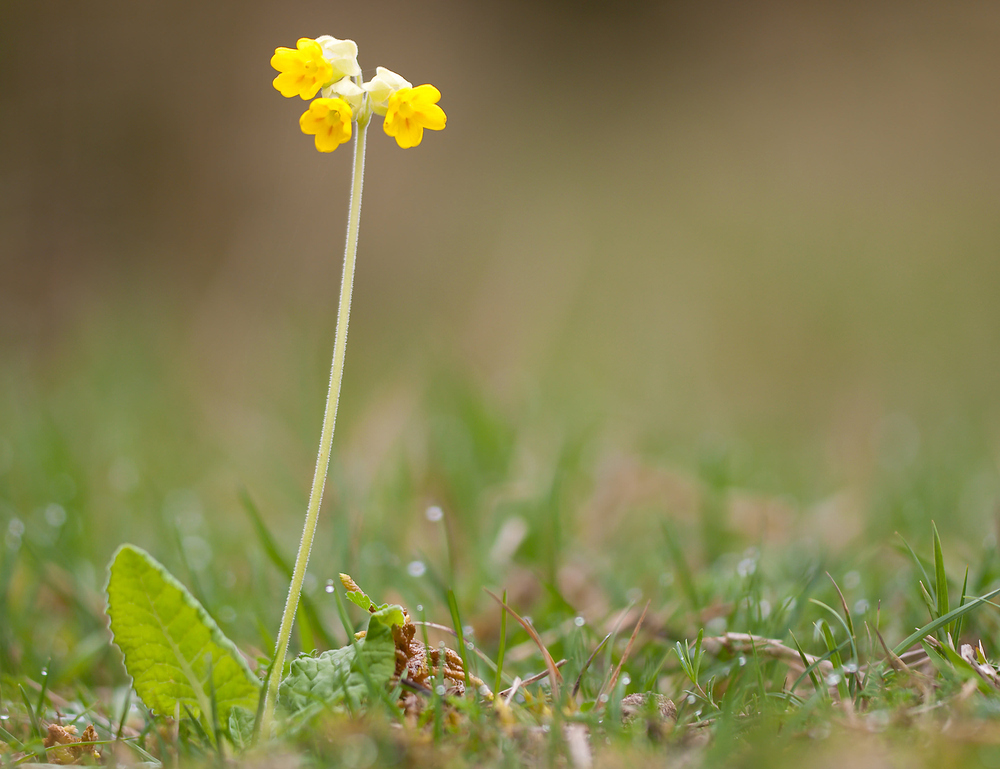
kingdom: Plantae
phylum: Tracheophyta
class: Magnoliopsida
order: Ericales
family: Primulaceae
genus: Primula
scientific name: Primula veris
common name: Cowslip
